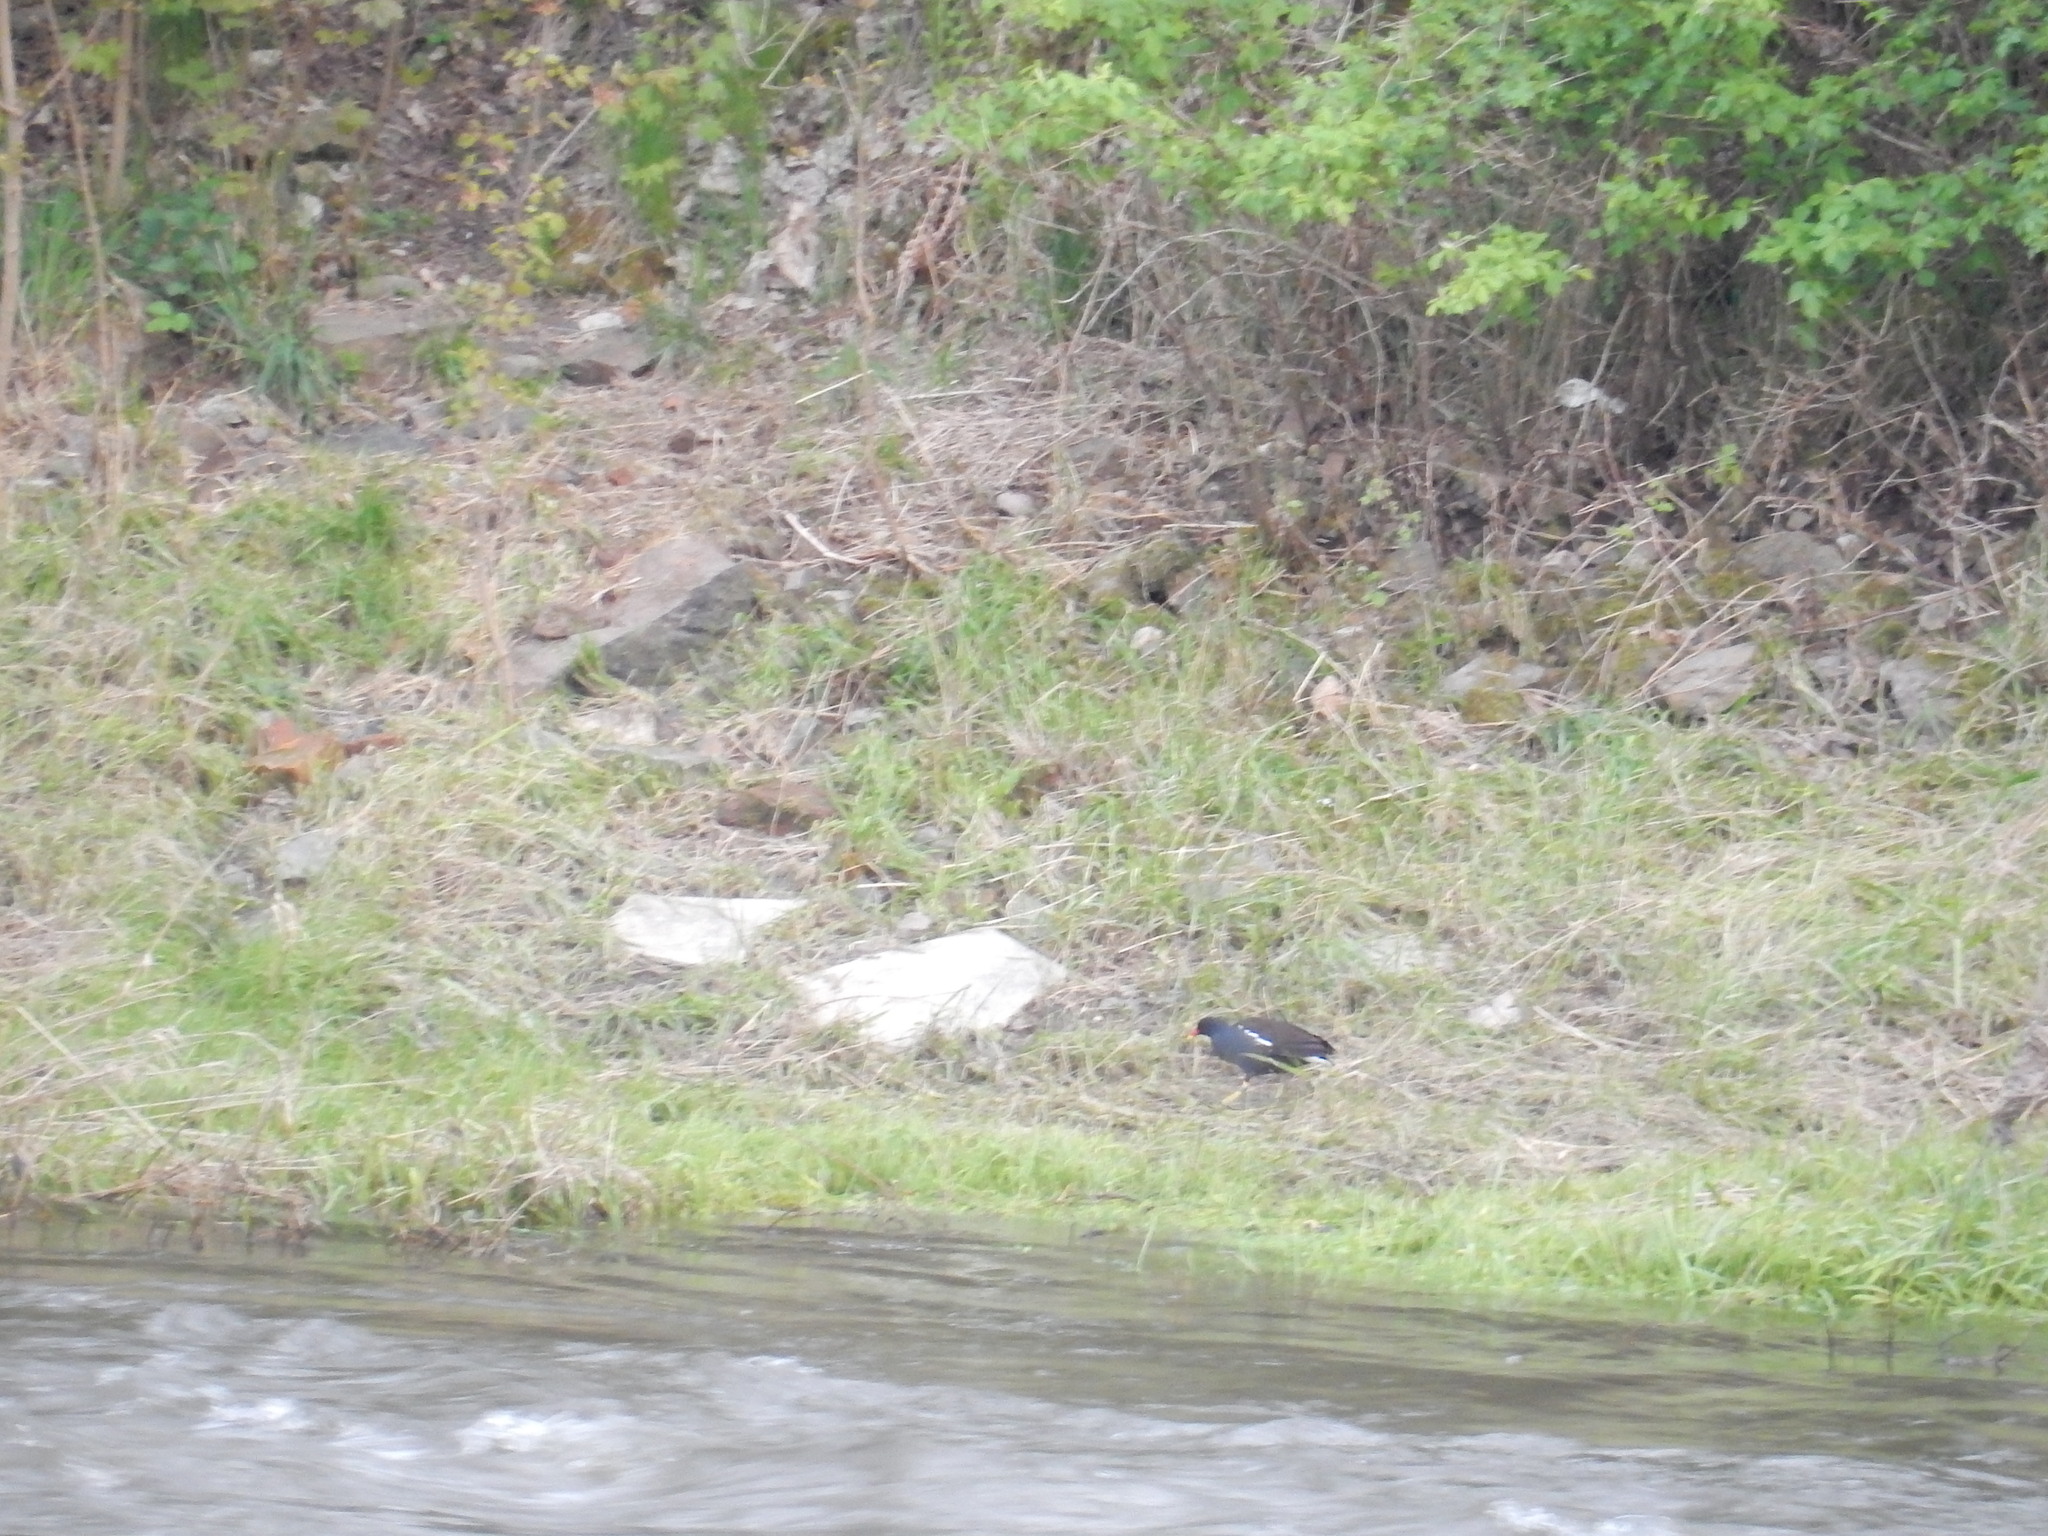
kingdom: Animalia
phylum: Chordata
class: Aves
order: Gruiformes
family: Rallidae
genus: Gallinula
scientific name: Gallinula chloropus
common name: Common moorhen
